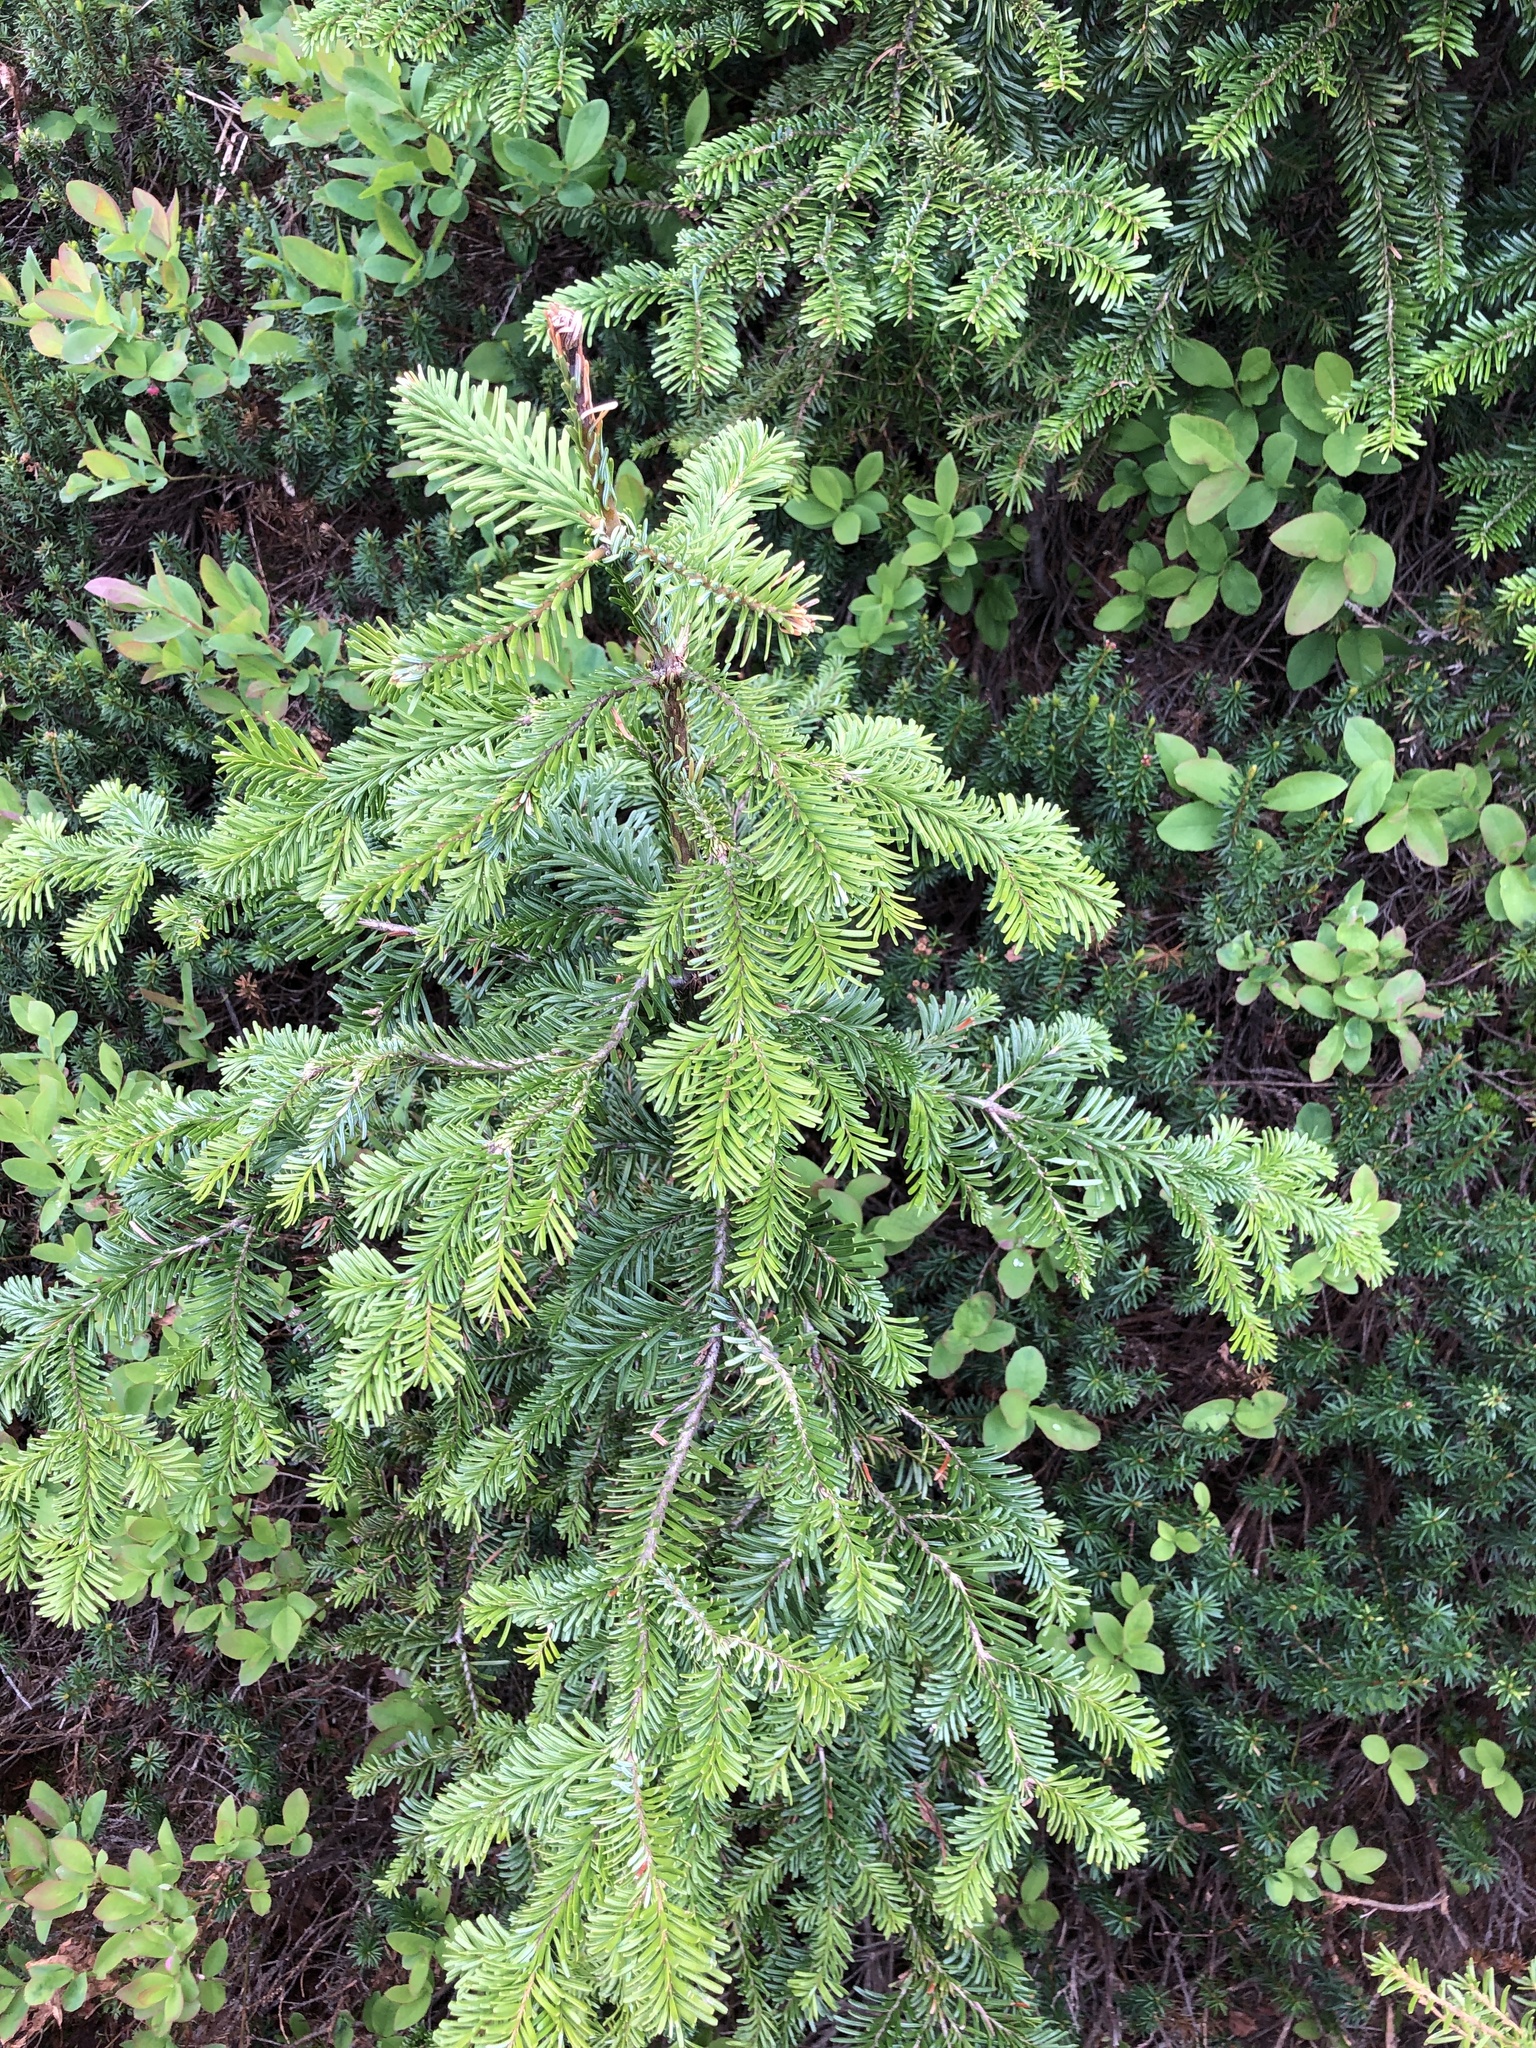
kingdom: Plantae
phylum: Tracheophyta
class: Pinopsida
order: Pinales
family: Pinaceae
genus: Abies
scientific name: Abies amabilis
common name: Pacific silver fir
